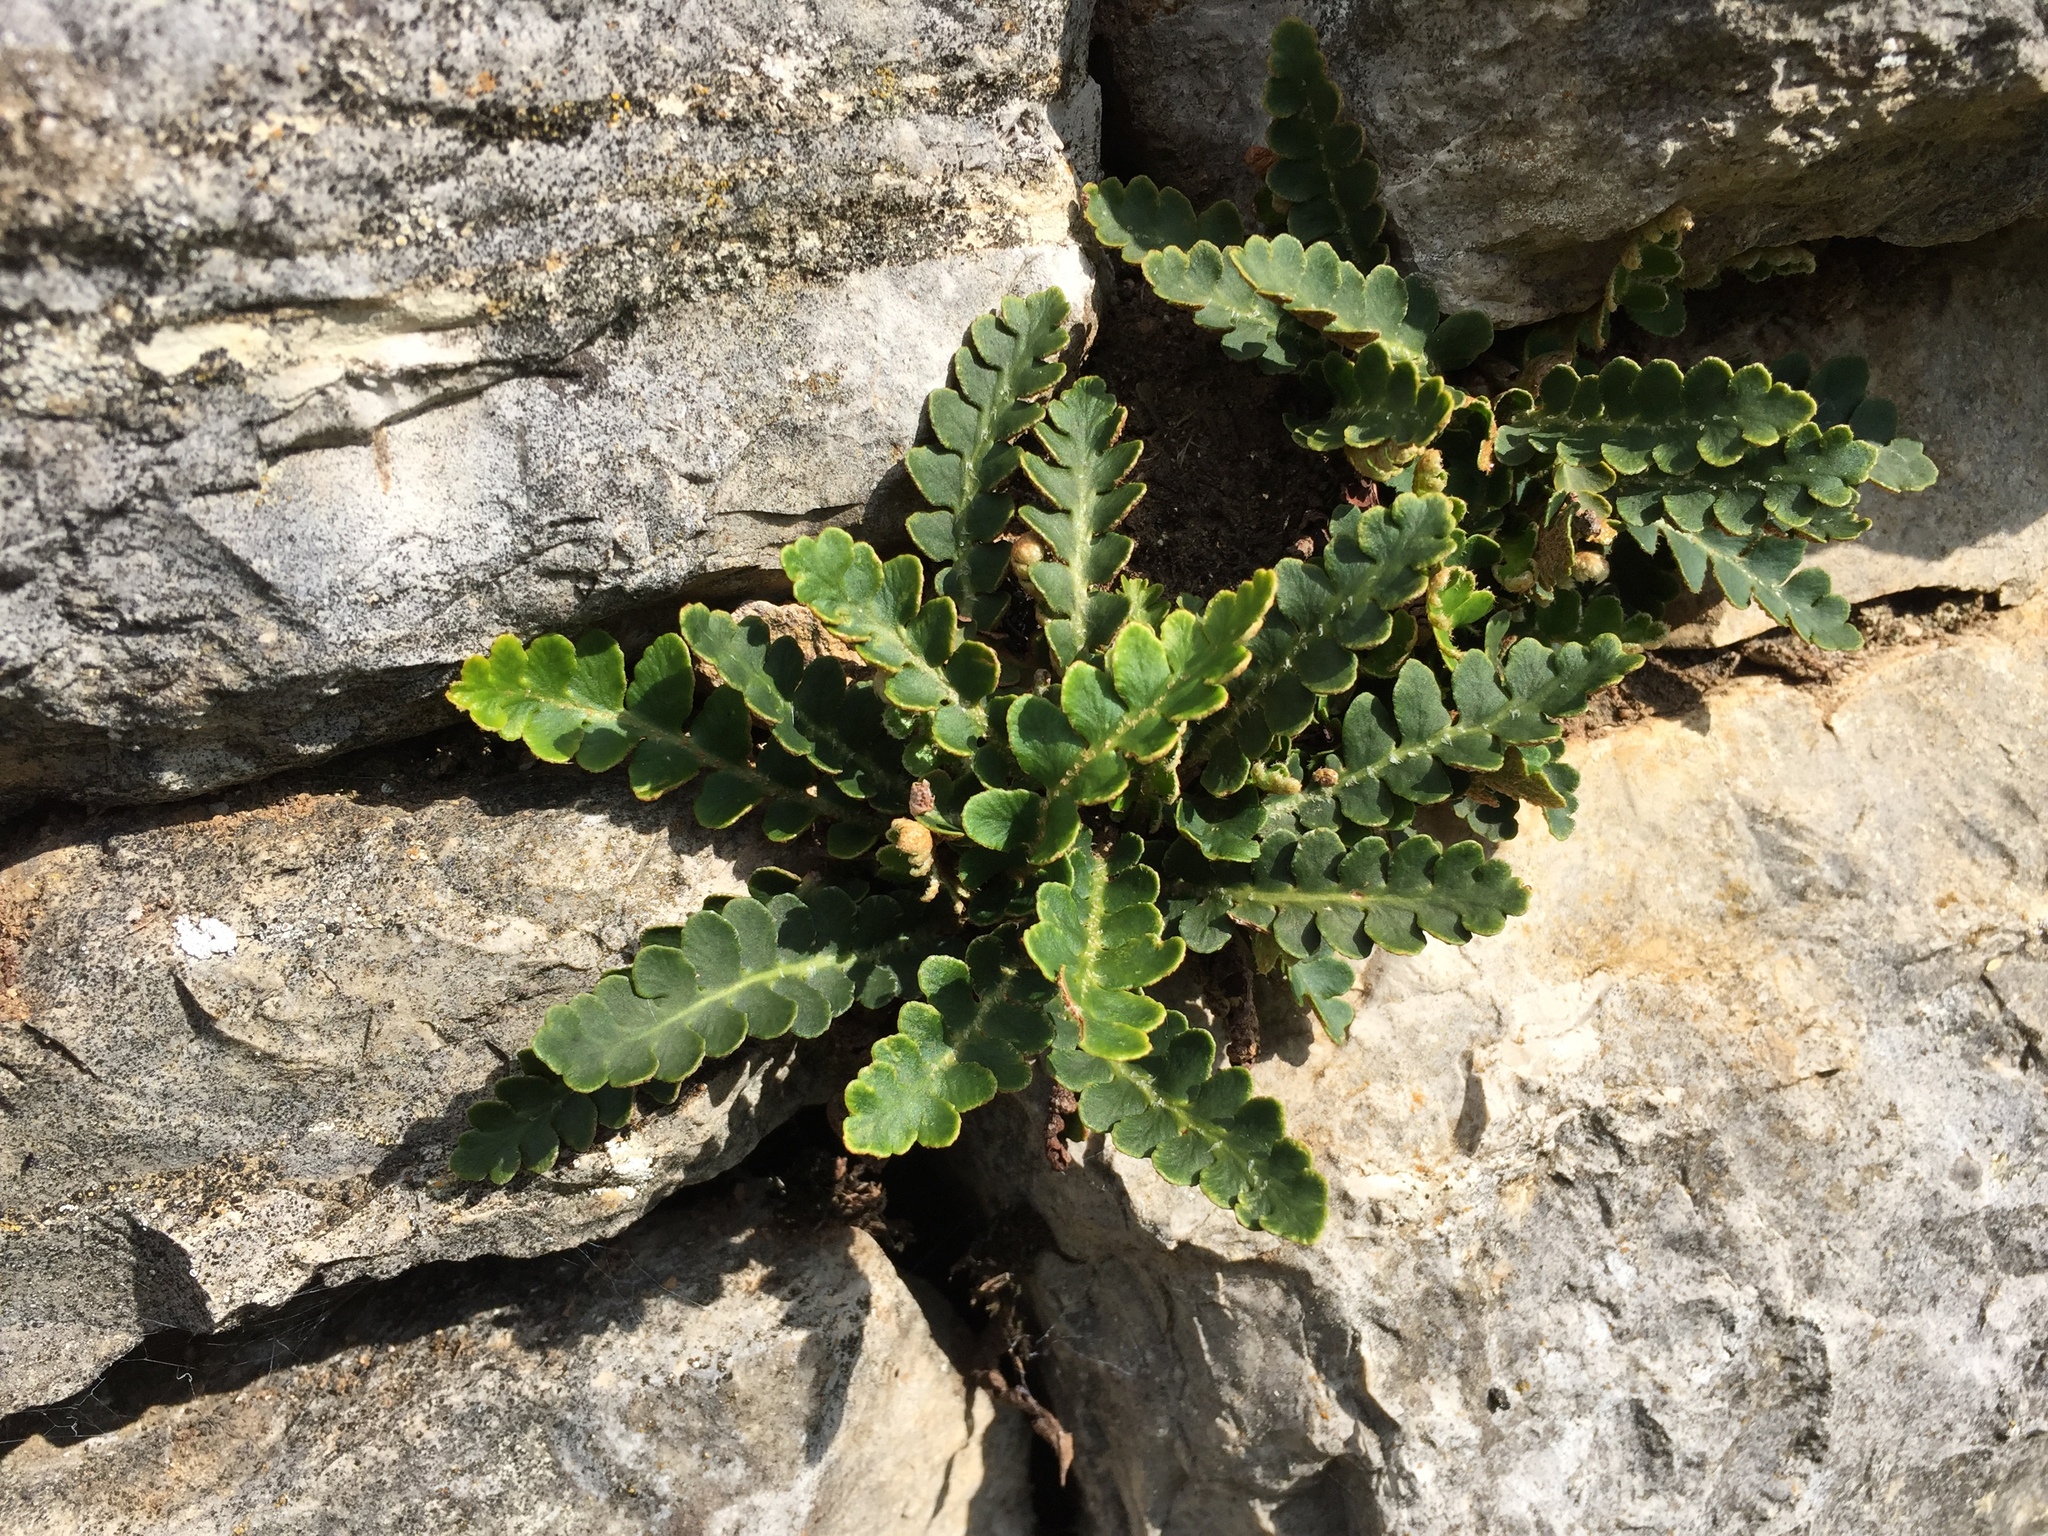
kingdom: Plantae
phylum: Tracheophyta
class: Polypodiopsida
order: Polypodiales
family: Aspleniaceae
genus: Asplenium
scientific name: Asplenium ceterach
